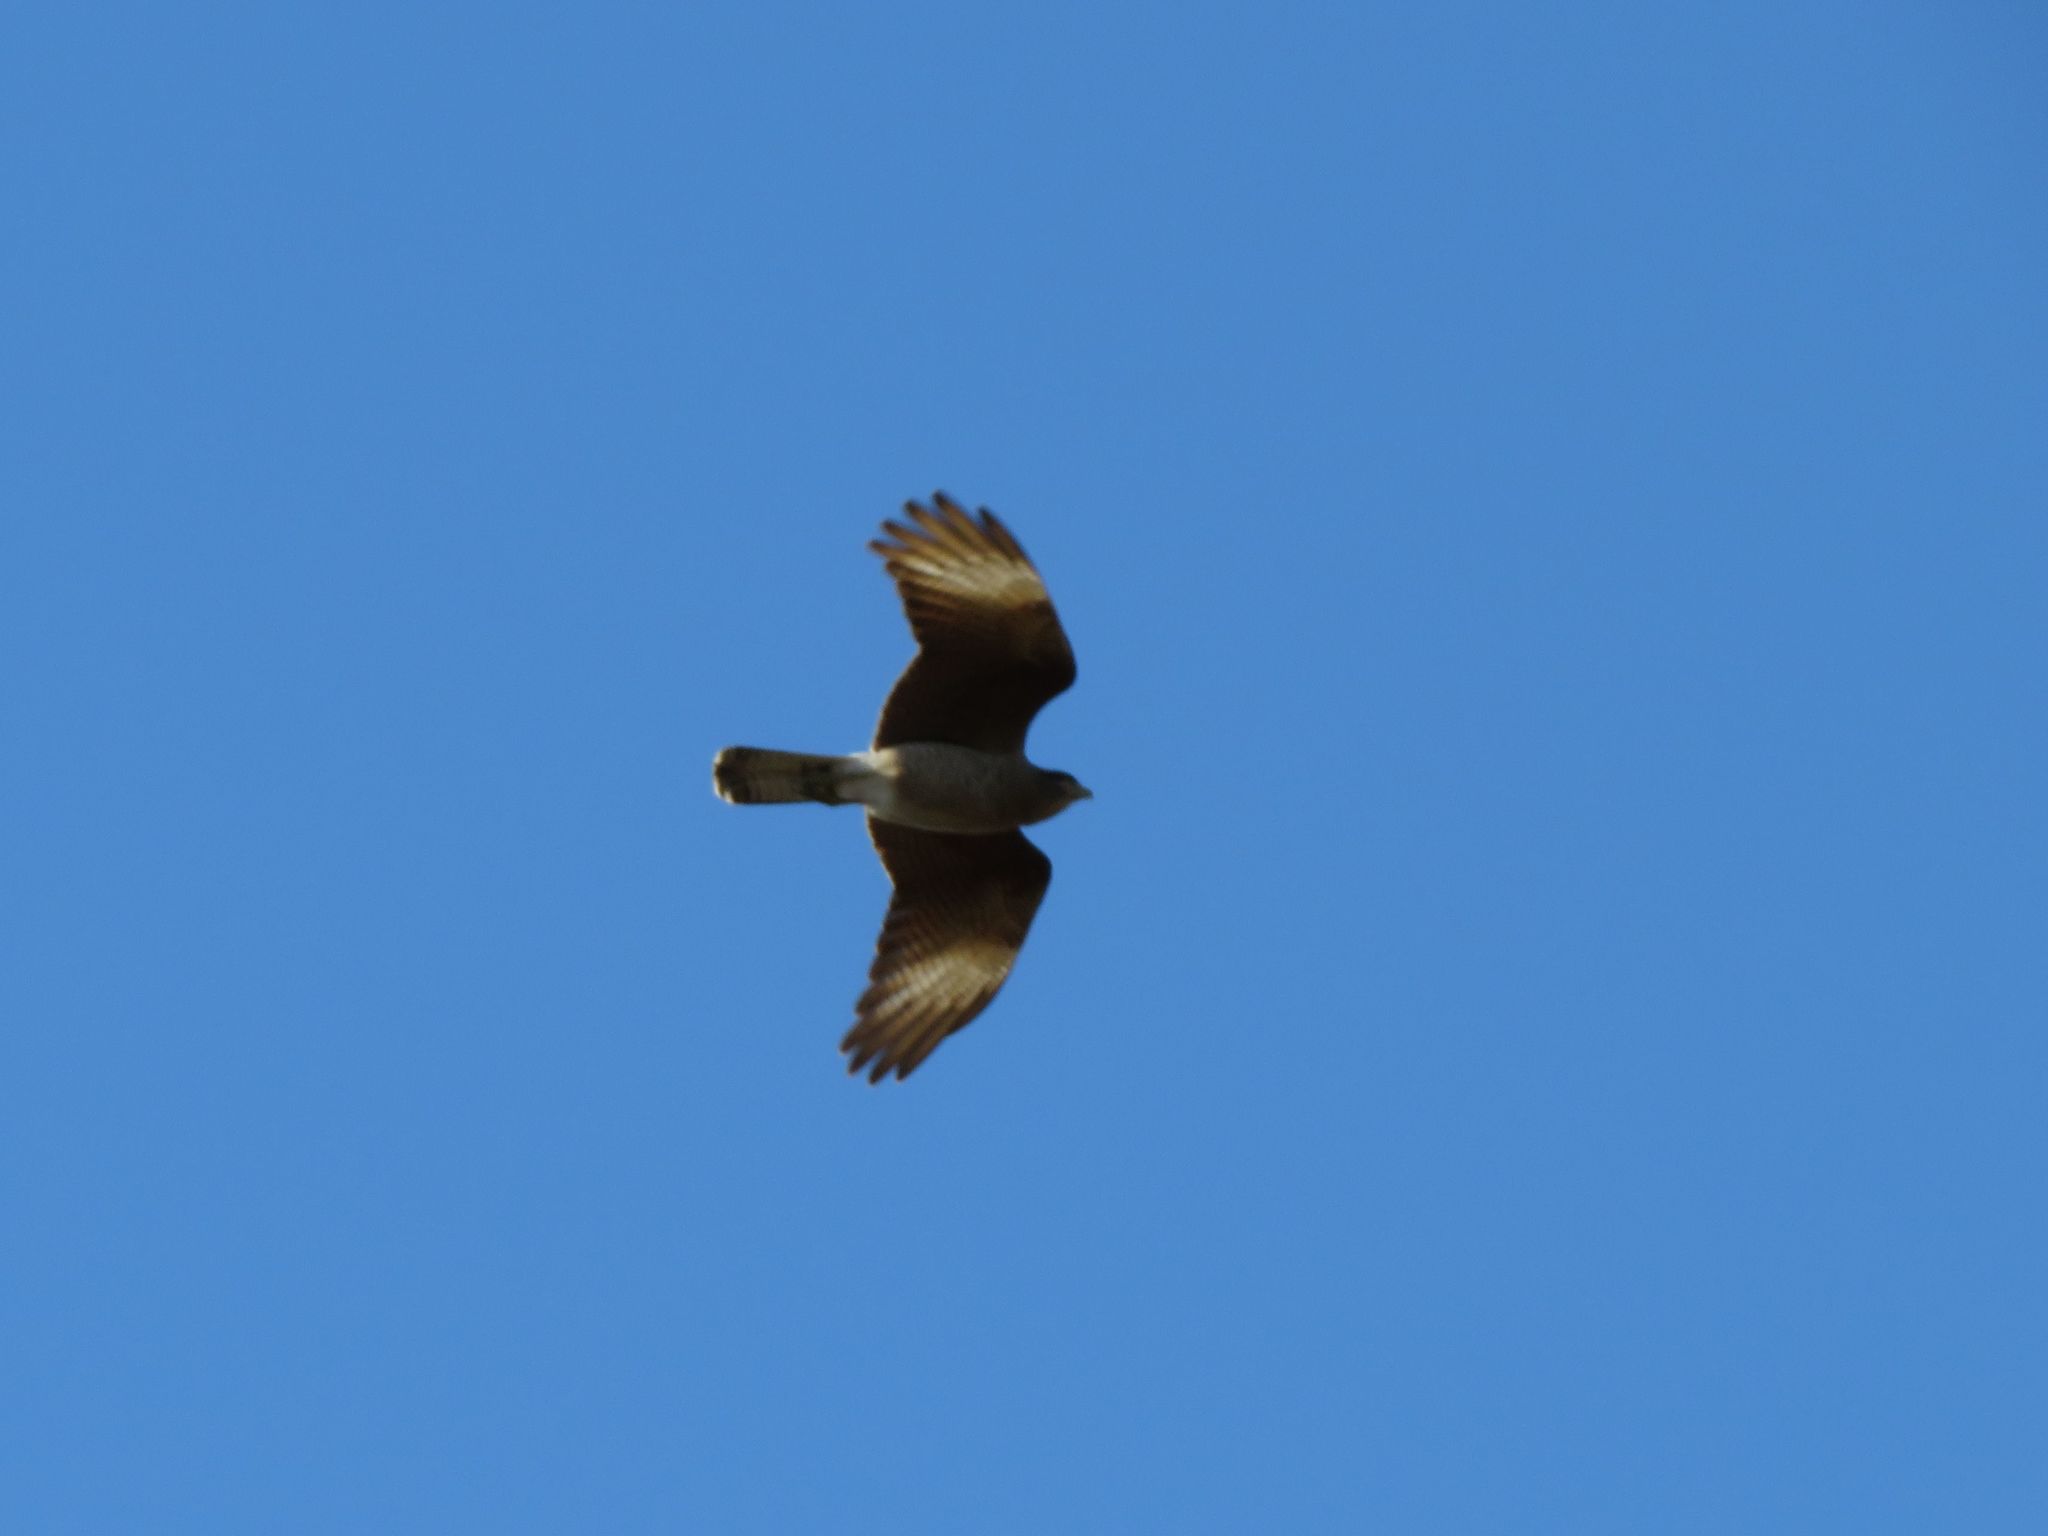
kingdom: Animalia
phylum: Chordata
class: Aves
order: Falconiformes
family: Falconidae
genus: Daptrius
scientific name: Daptrius
